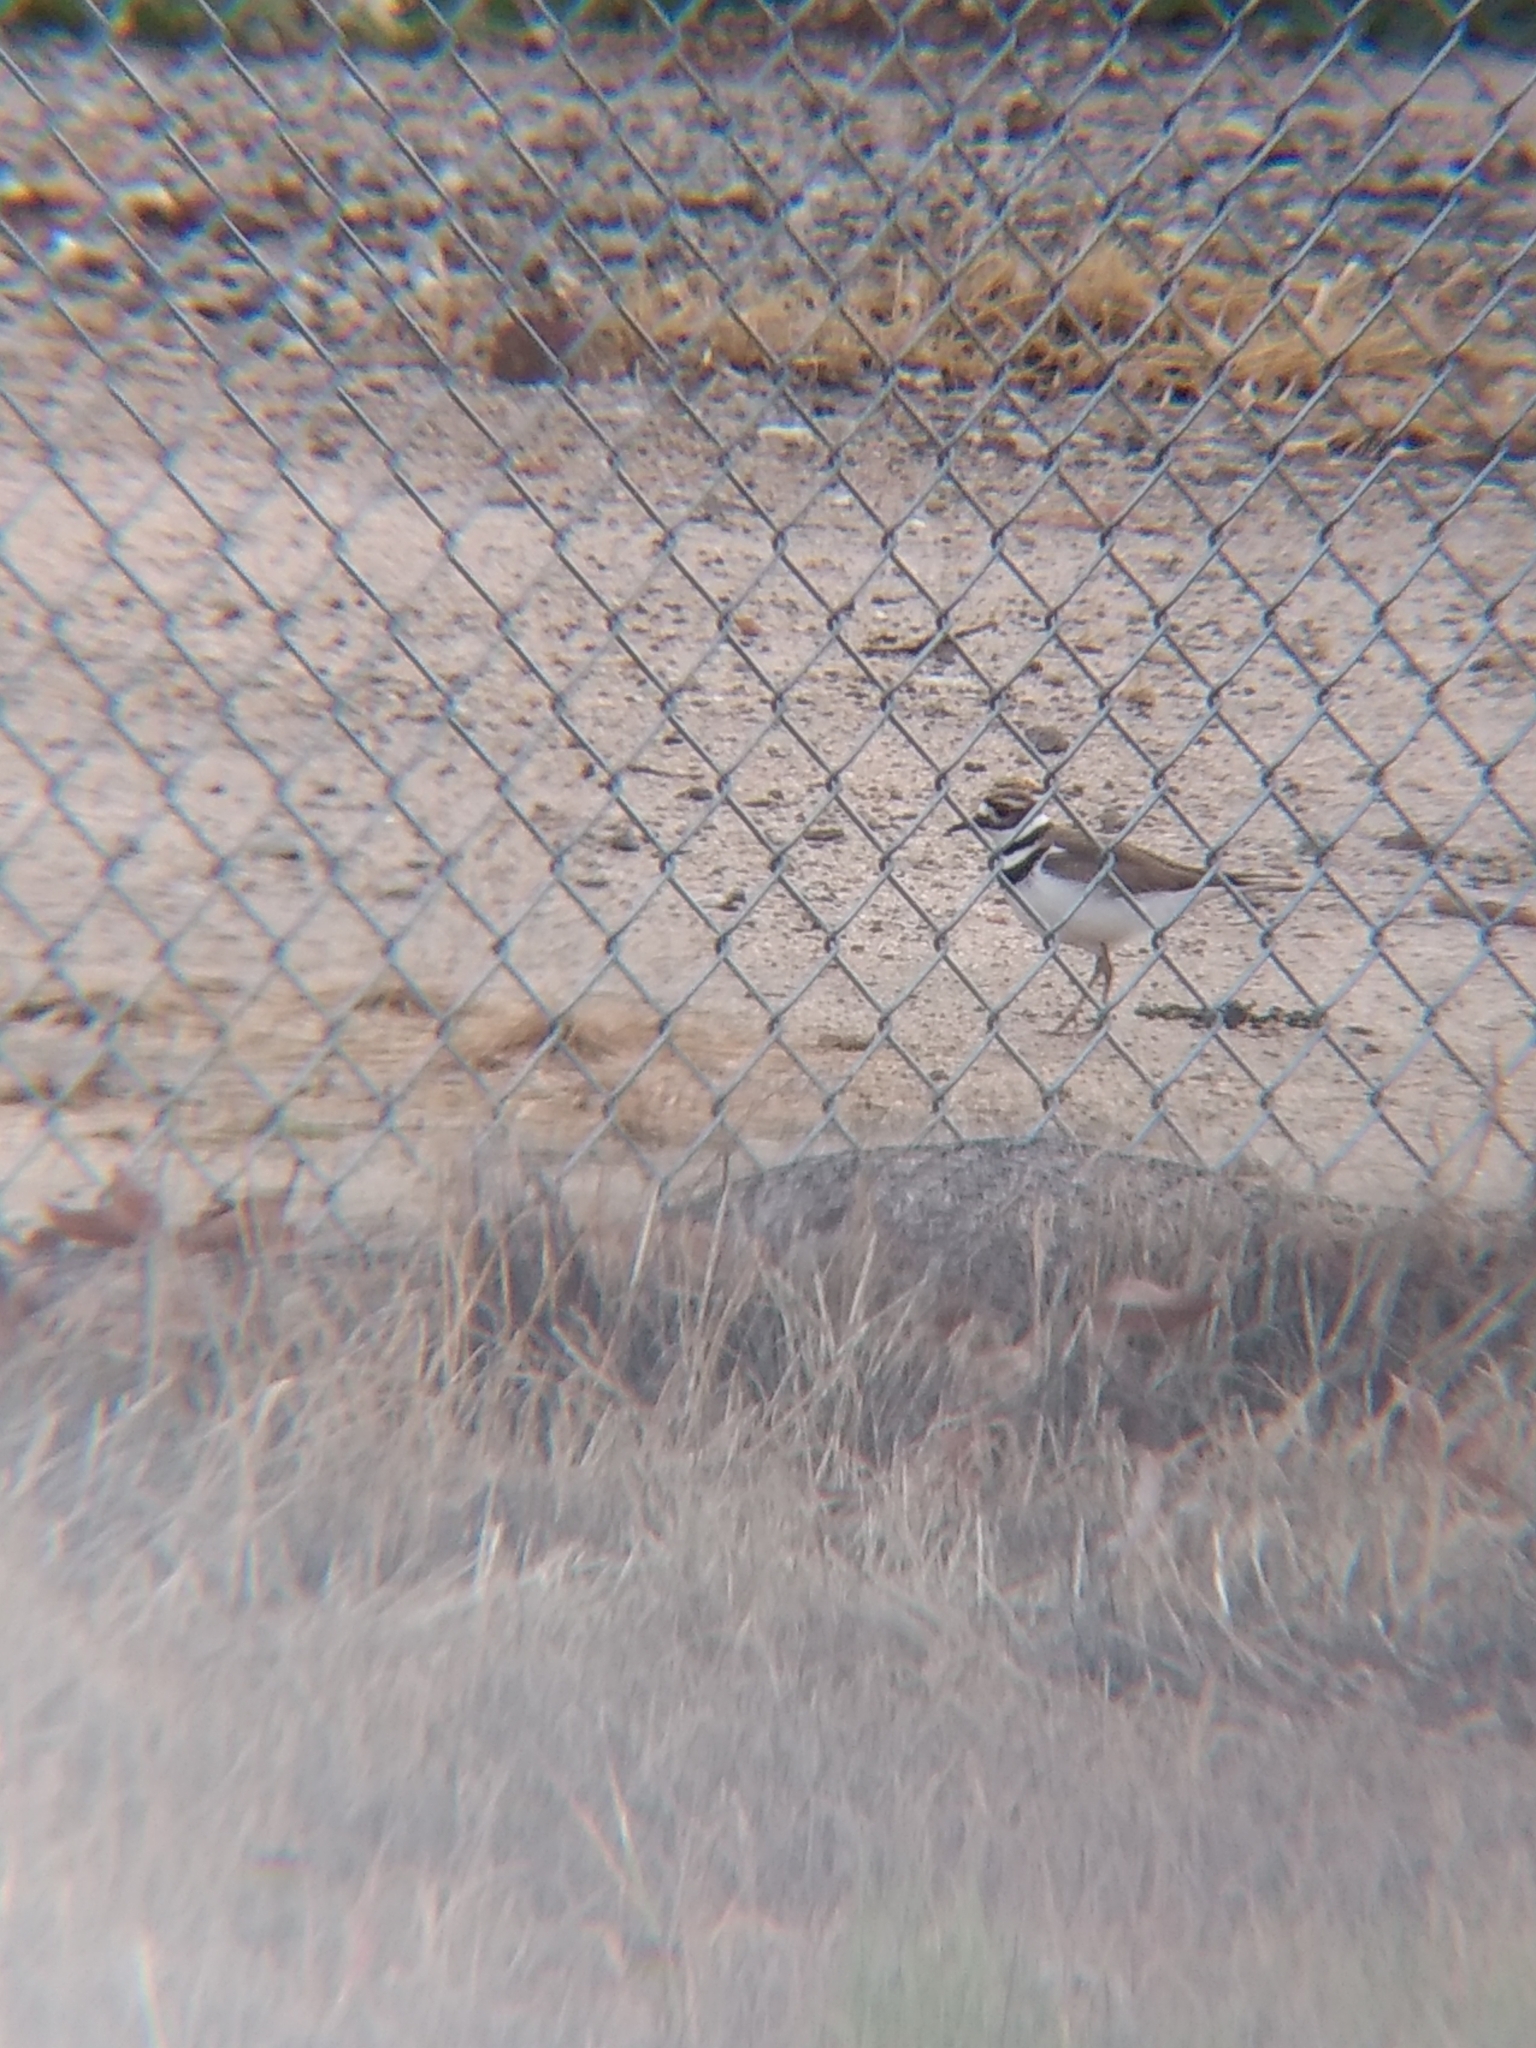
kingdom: Animalia
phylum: Chordata
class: Aves
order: Charadriiformes
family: Charadriidae
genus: Charadrius
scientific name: Charadrius vociferus
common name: Killdeer
